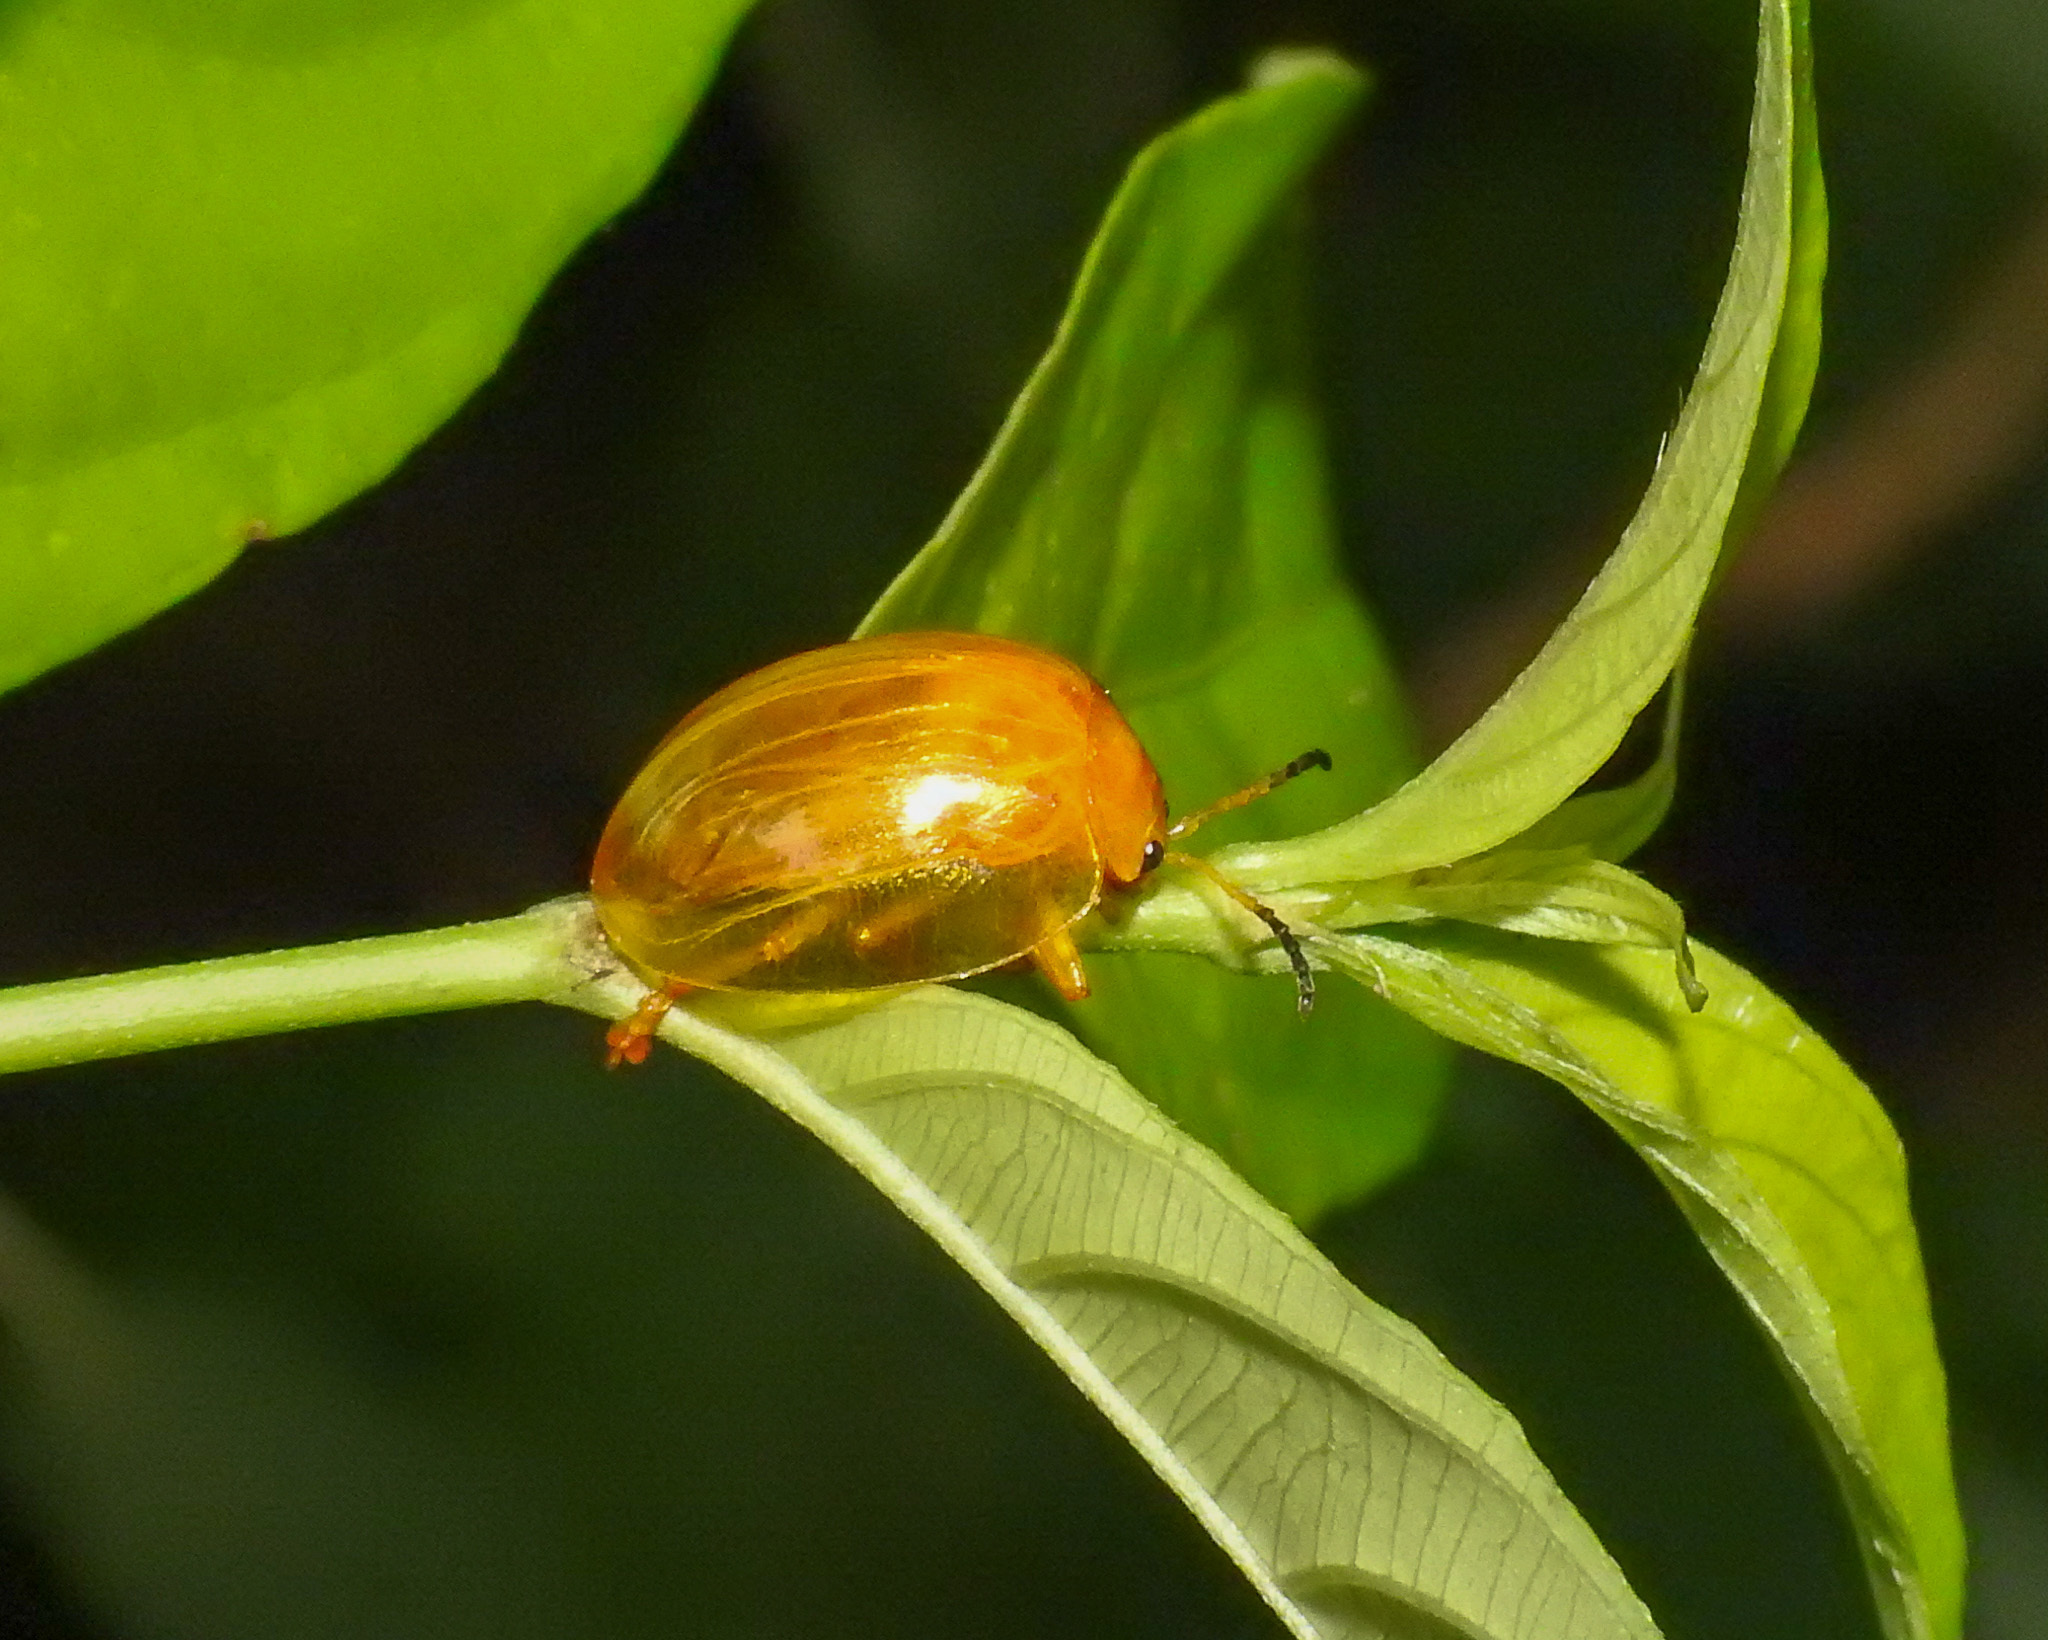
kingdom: Animalia
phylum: Arthropoda
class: Insecta
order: Coleoptera
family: Chrysomelidae
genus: Sceloenopla
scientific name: Sceloenopla maculata
